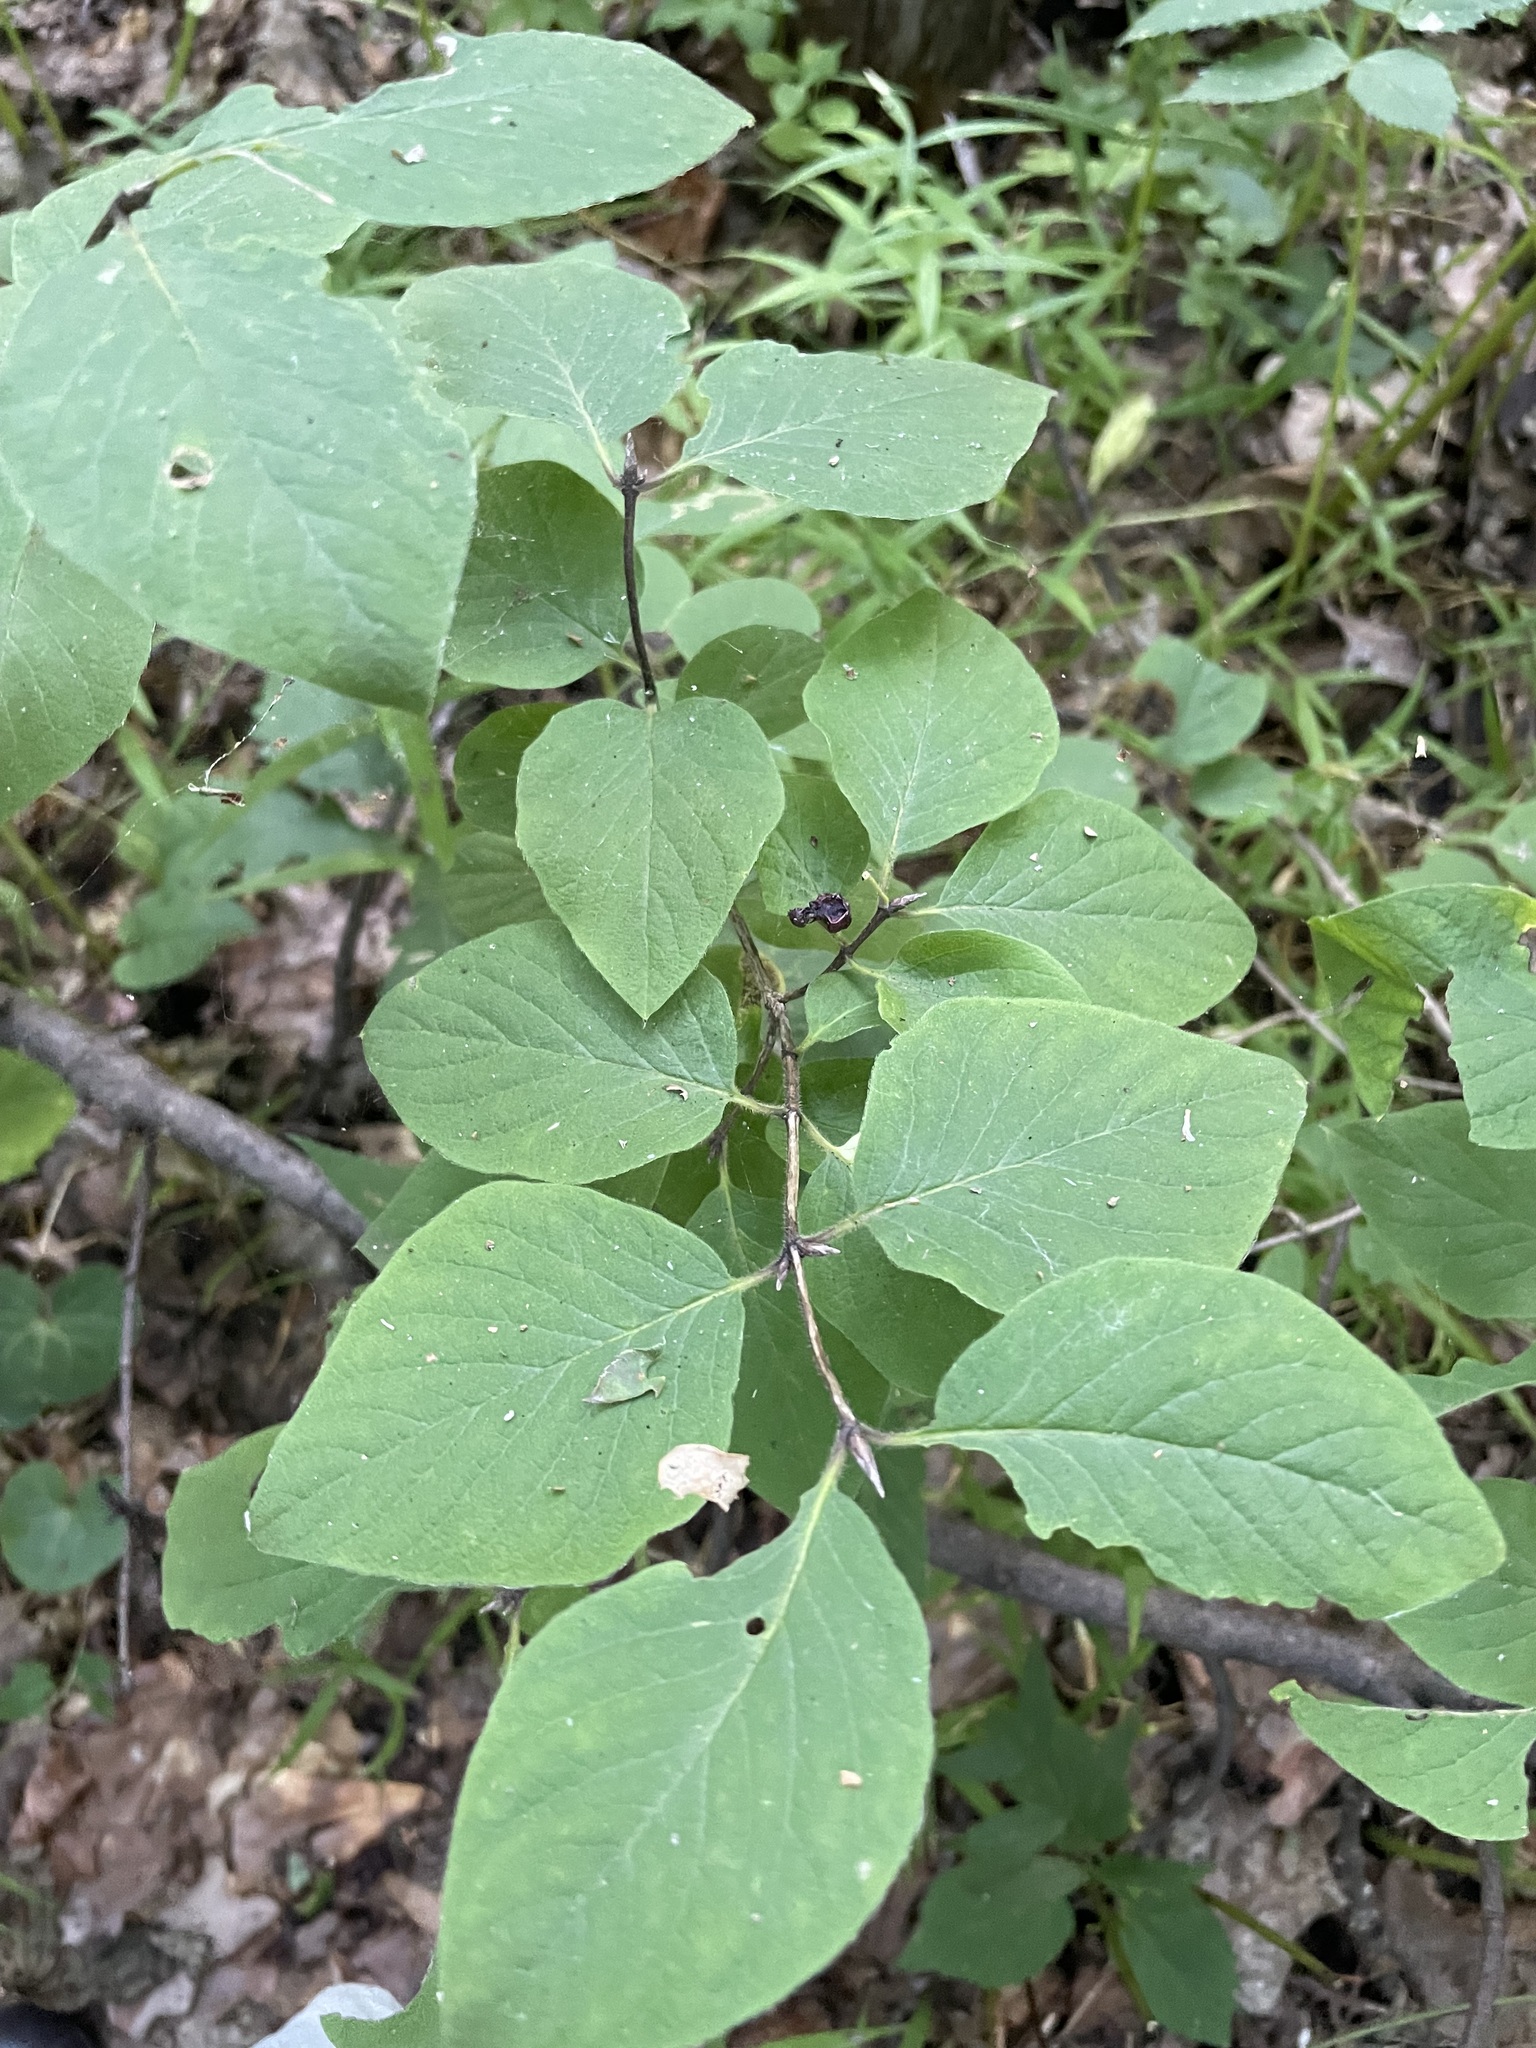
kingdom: Plantae
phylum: Tracheophyta
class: Magnoliopsida
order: Dipsacales
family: Caprifoliaceae
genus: Lonicera
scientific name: Lonicera xylosteum
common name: Fly honeysuckle
